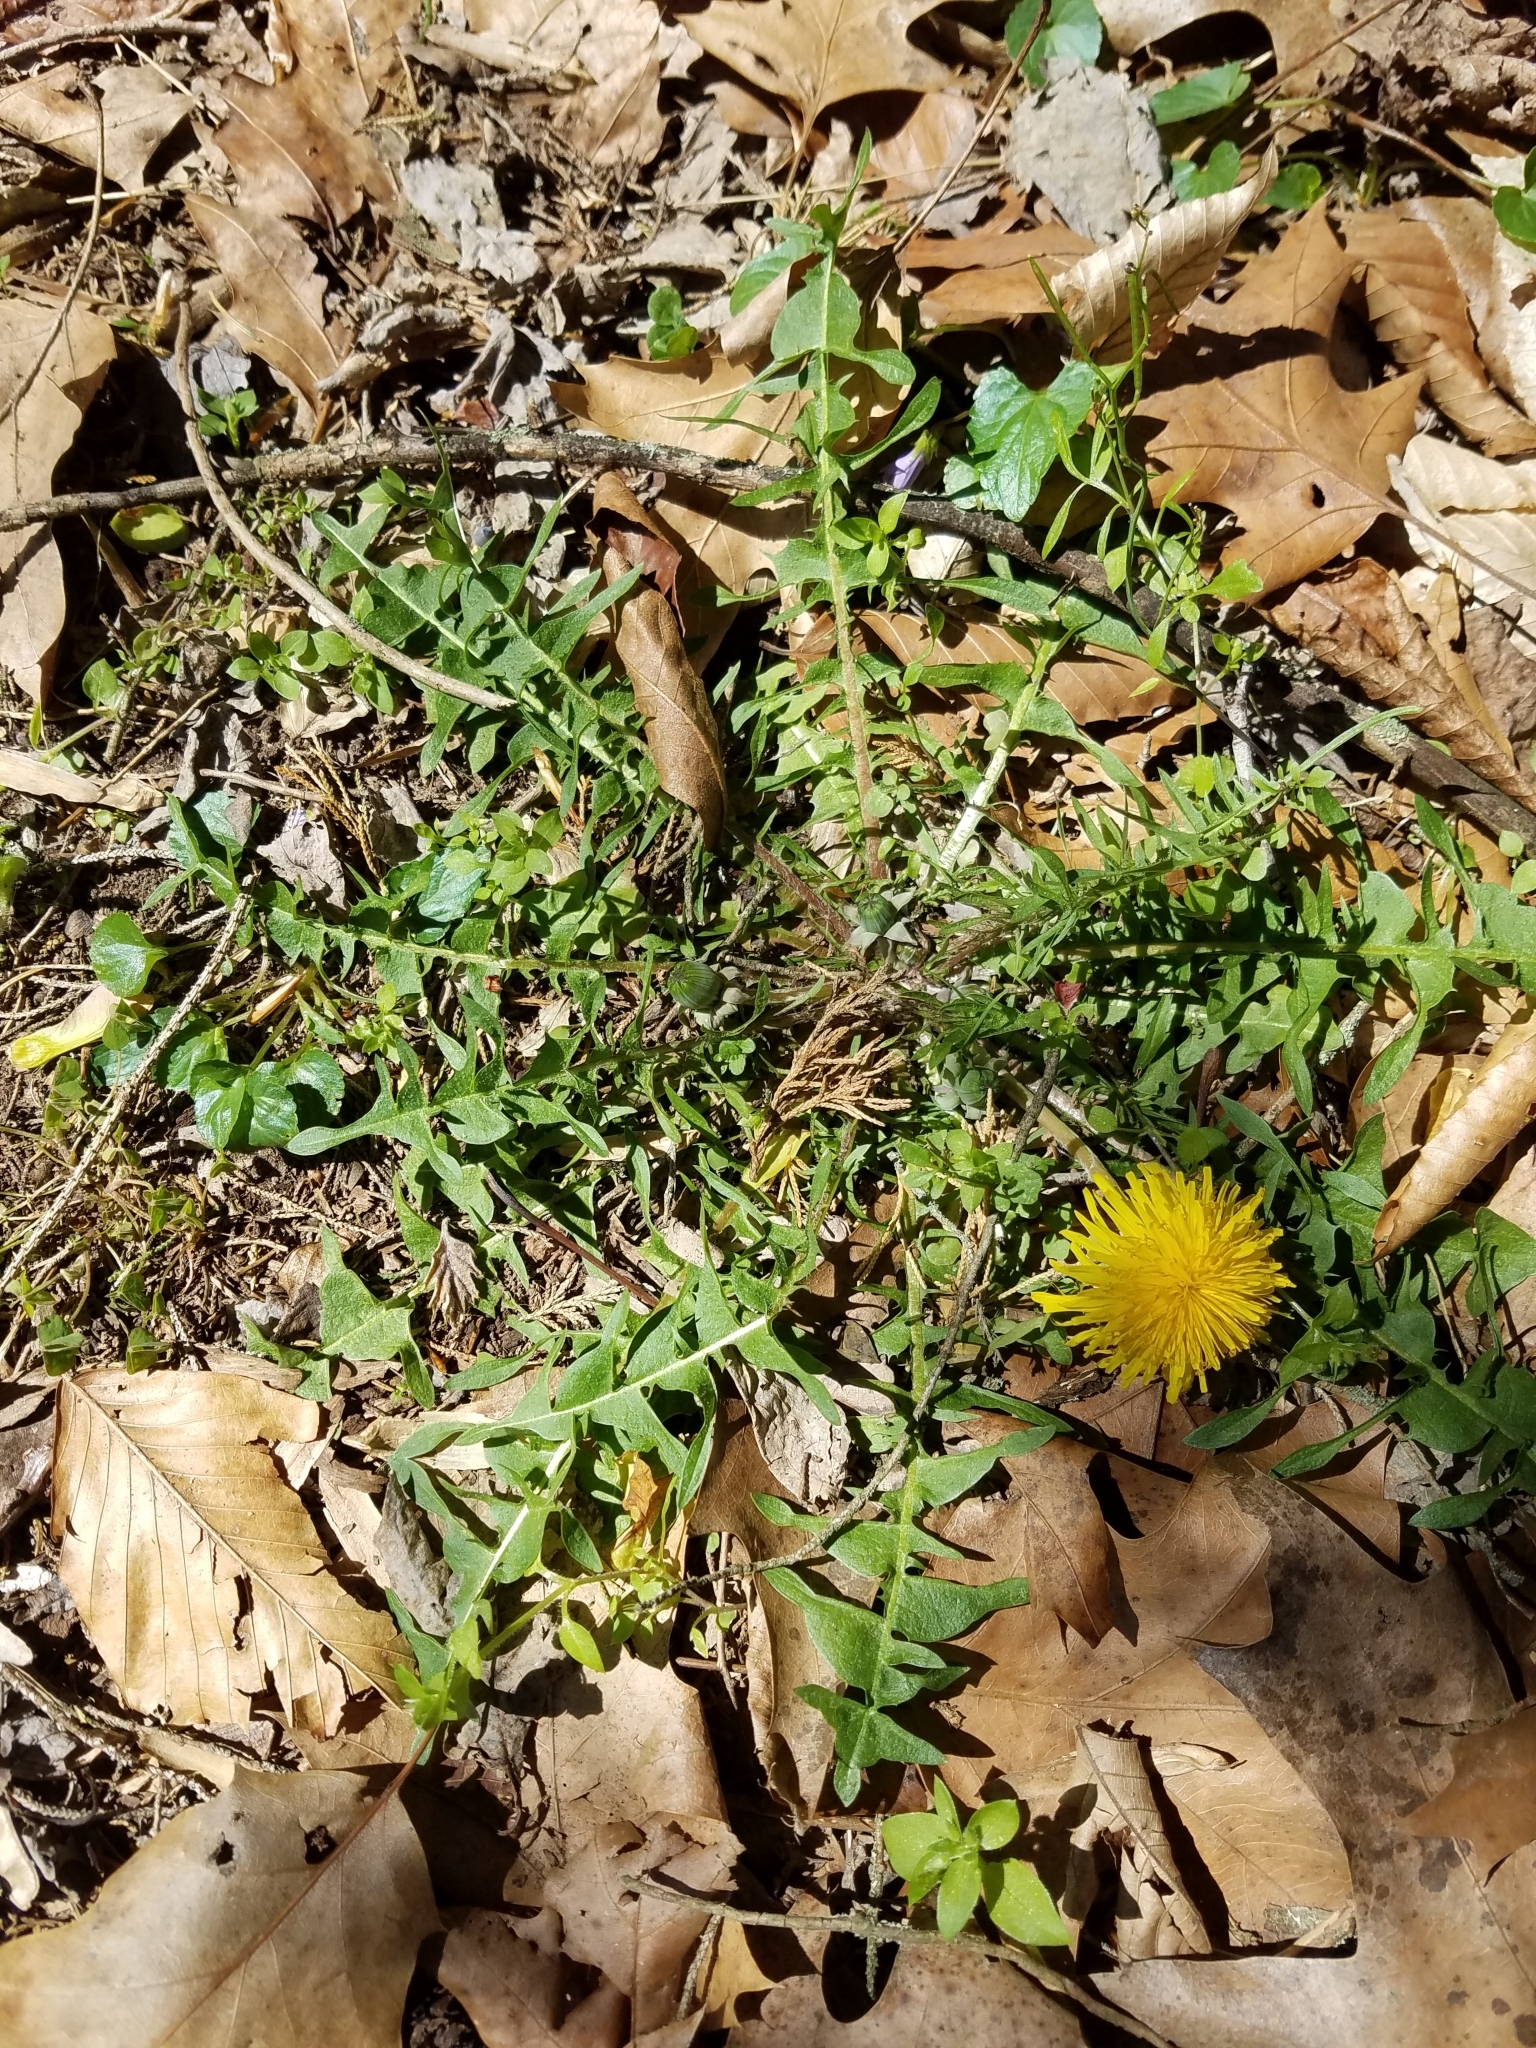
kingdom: Plantae
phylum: Tracheophyta
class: Magnoliopsida
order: Asterales
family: Asteraceae
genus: Taraxacum
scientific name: Taraxacum officinale
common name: Common dandelion
